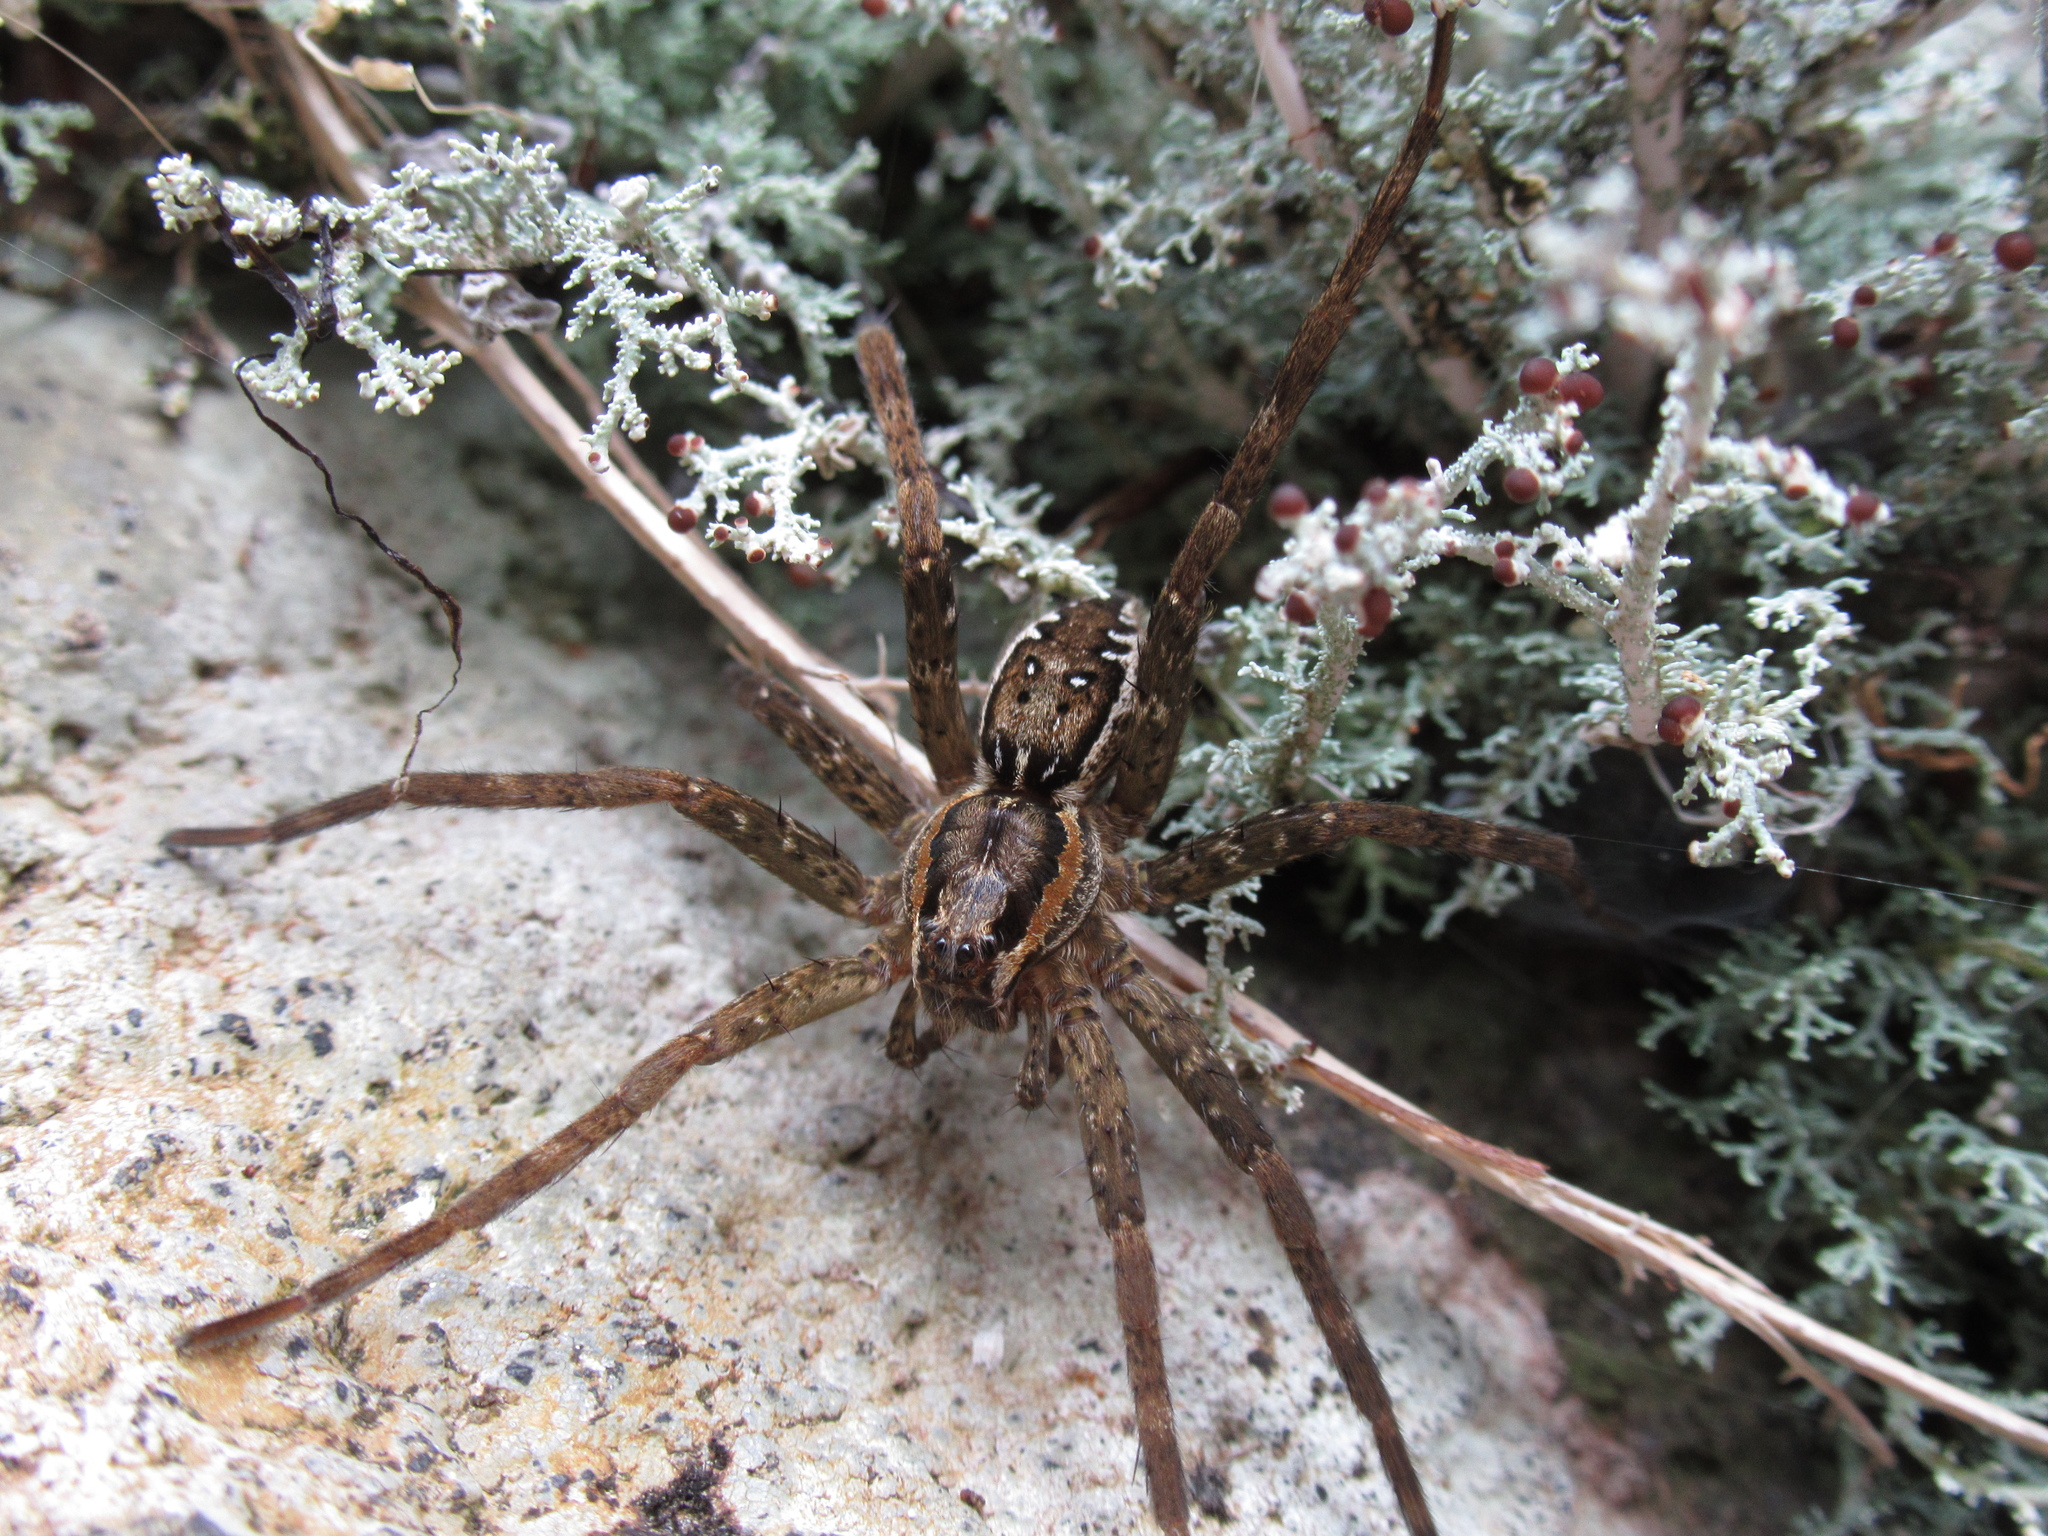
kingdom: Animalia
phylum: Arthropoda
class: Arachnida
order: Araneae
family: Pisauridae
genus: Dolomedes
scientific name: Dolomedes dondalei
